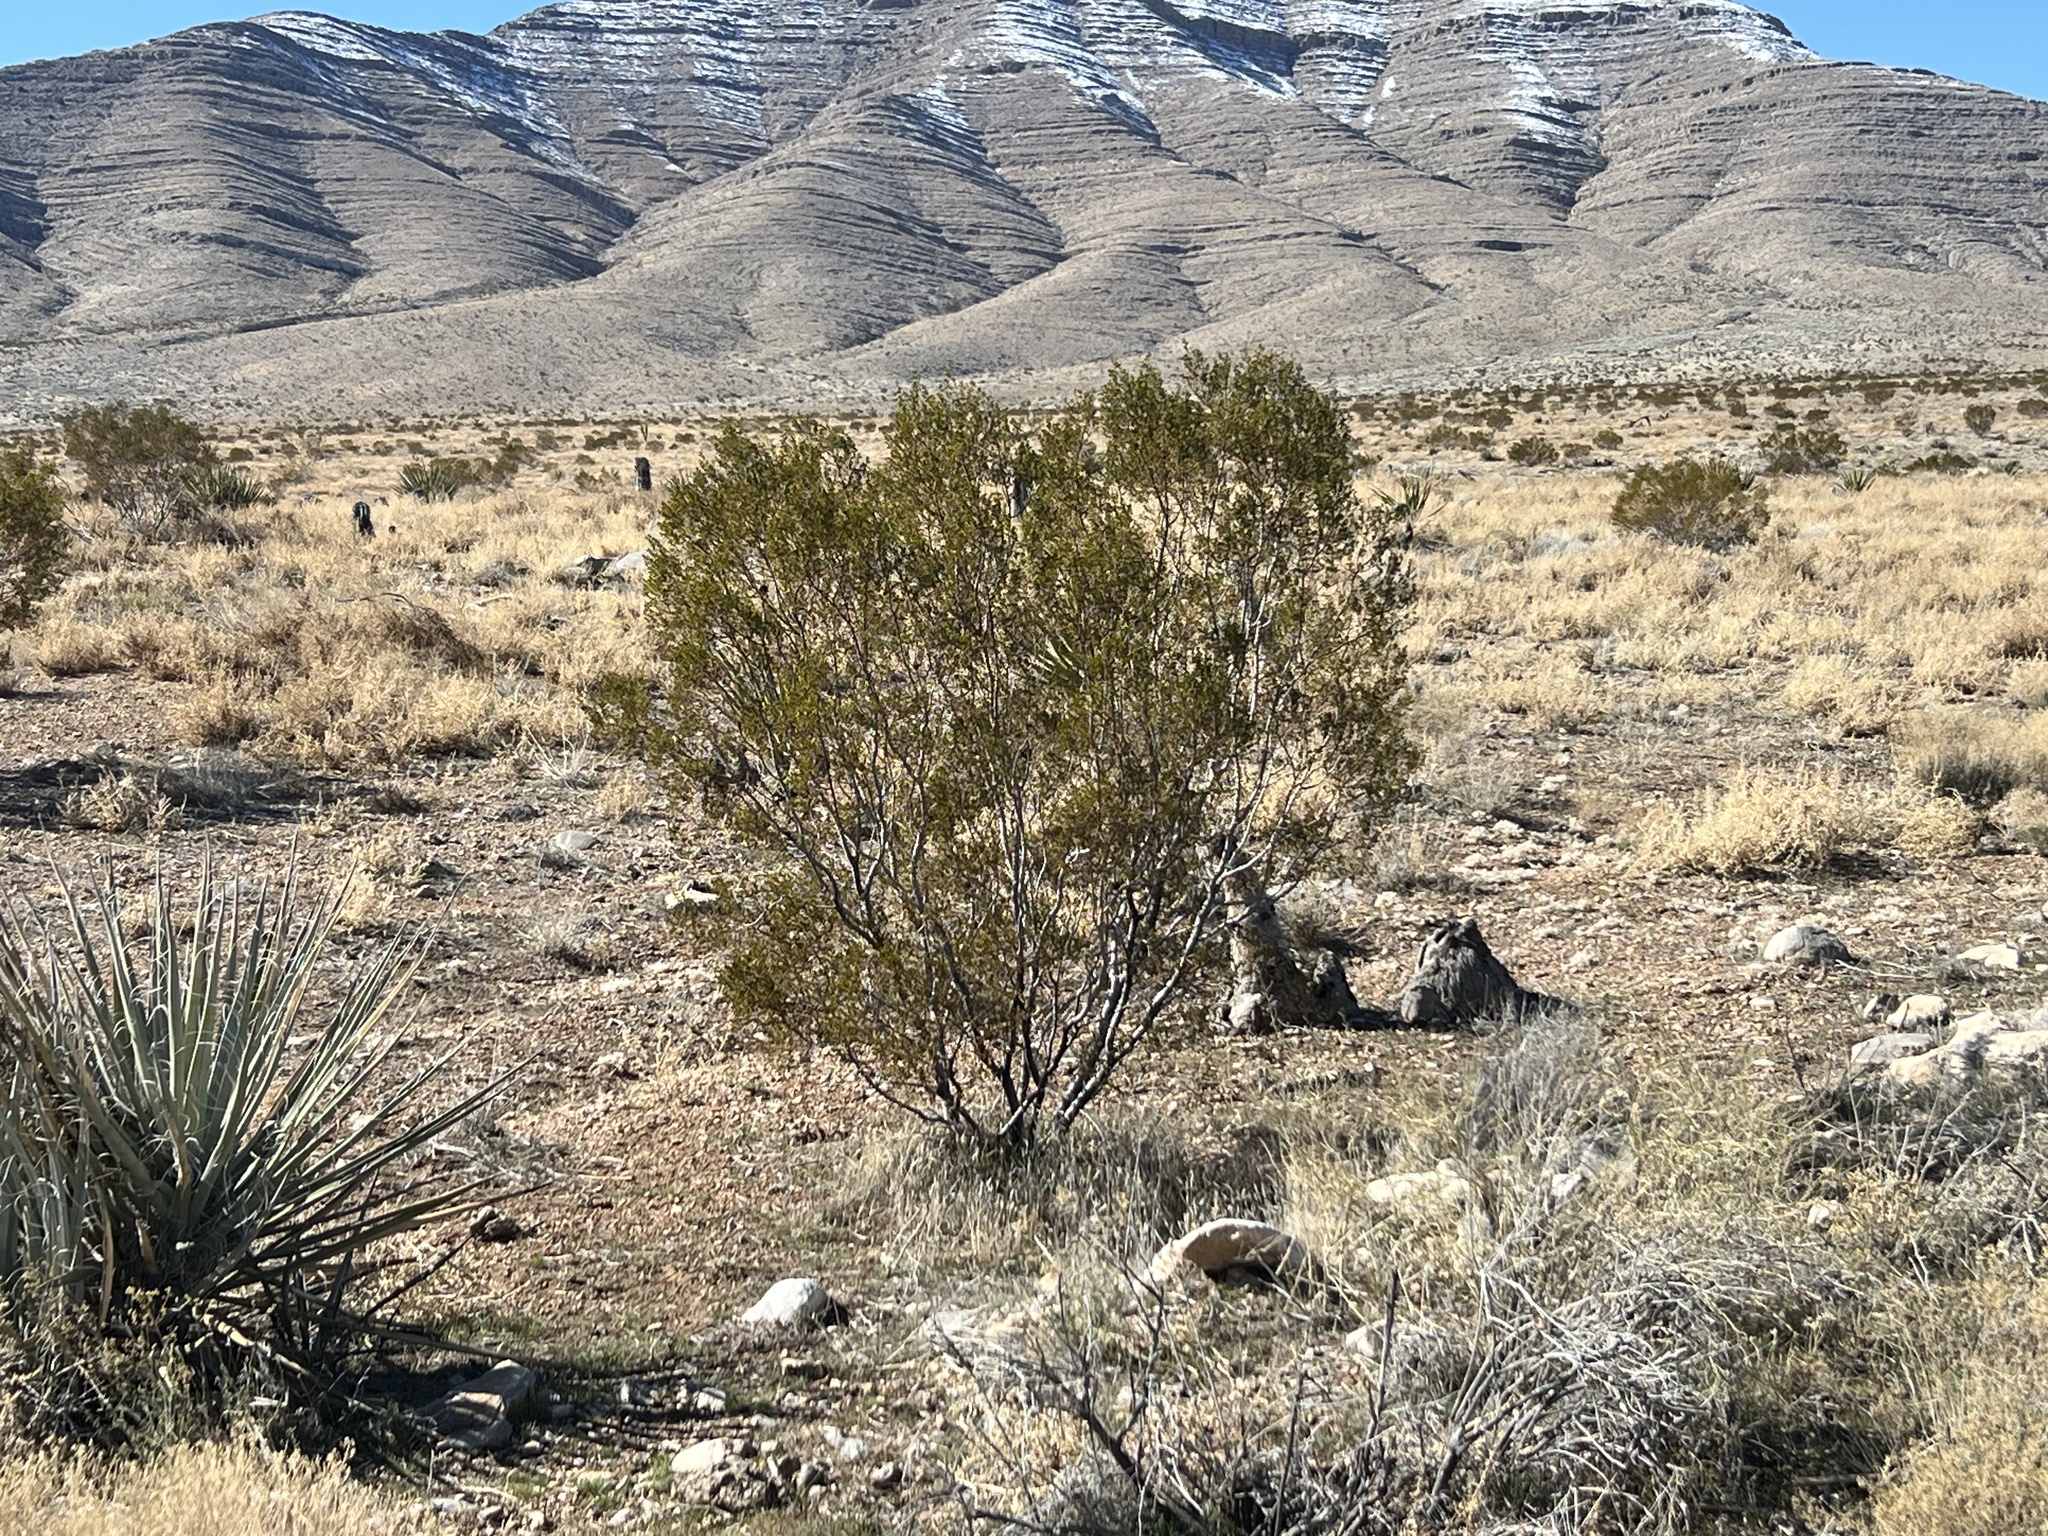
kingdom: Plantae
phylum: Tracheophyta
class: Magnoliopsida
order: Zygophyllales
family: Zygophyllaceae
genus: Larrea
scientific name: Larrea tridentata
